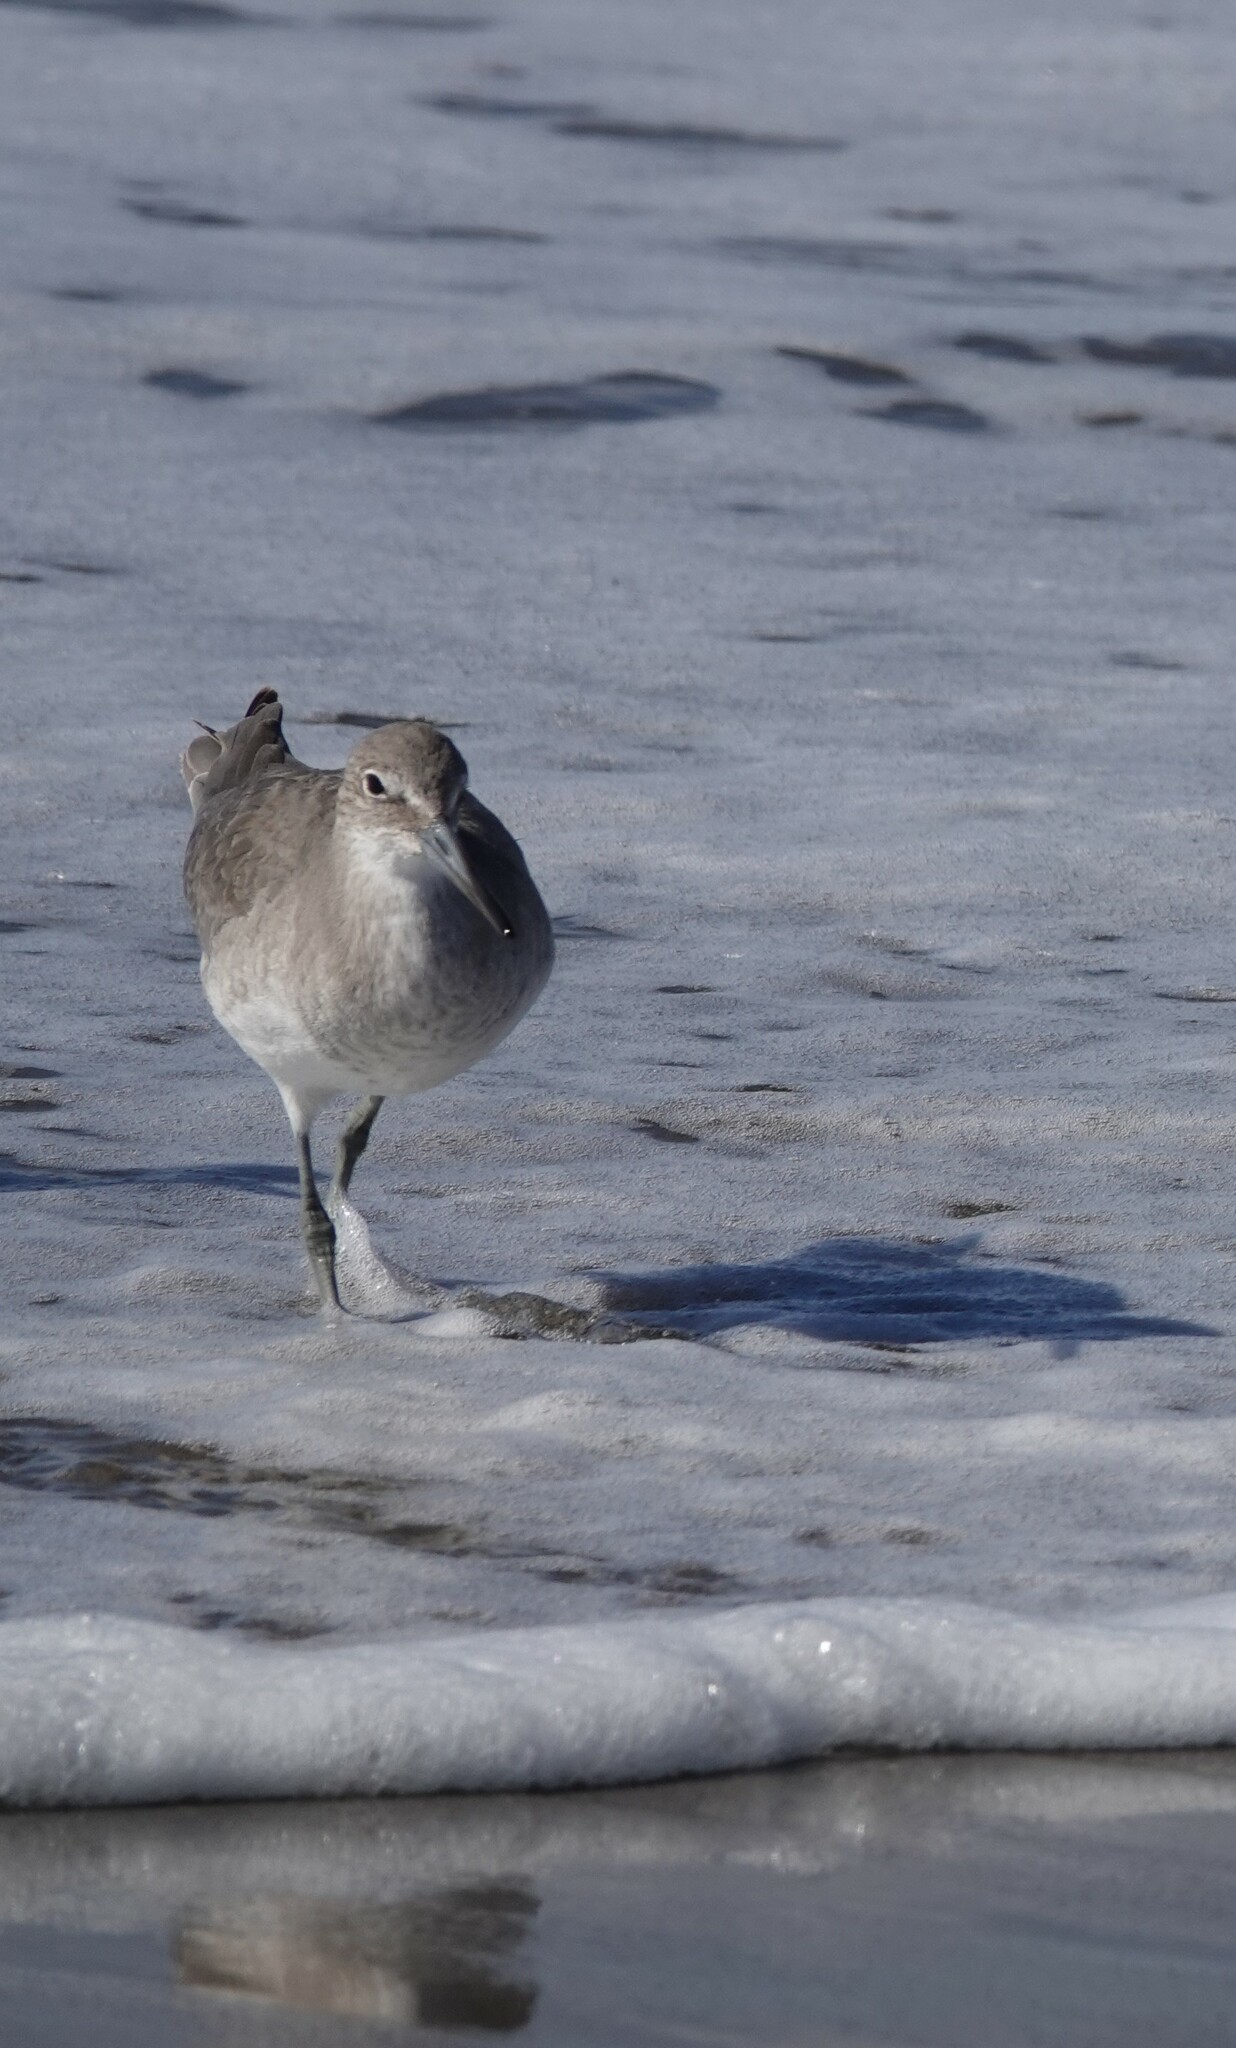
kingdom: Animalia
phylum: Chordata
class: Aves
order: Charadriiformes
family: Scolopacidae
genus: Tringa
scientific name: Tringa semipalmata
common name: Willet
